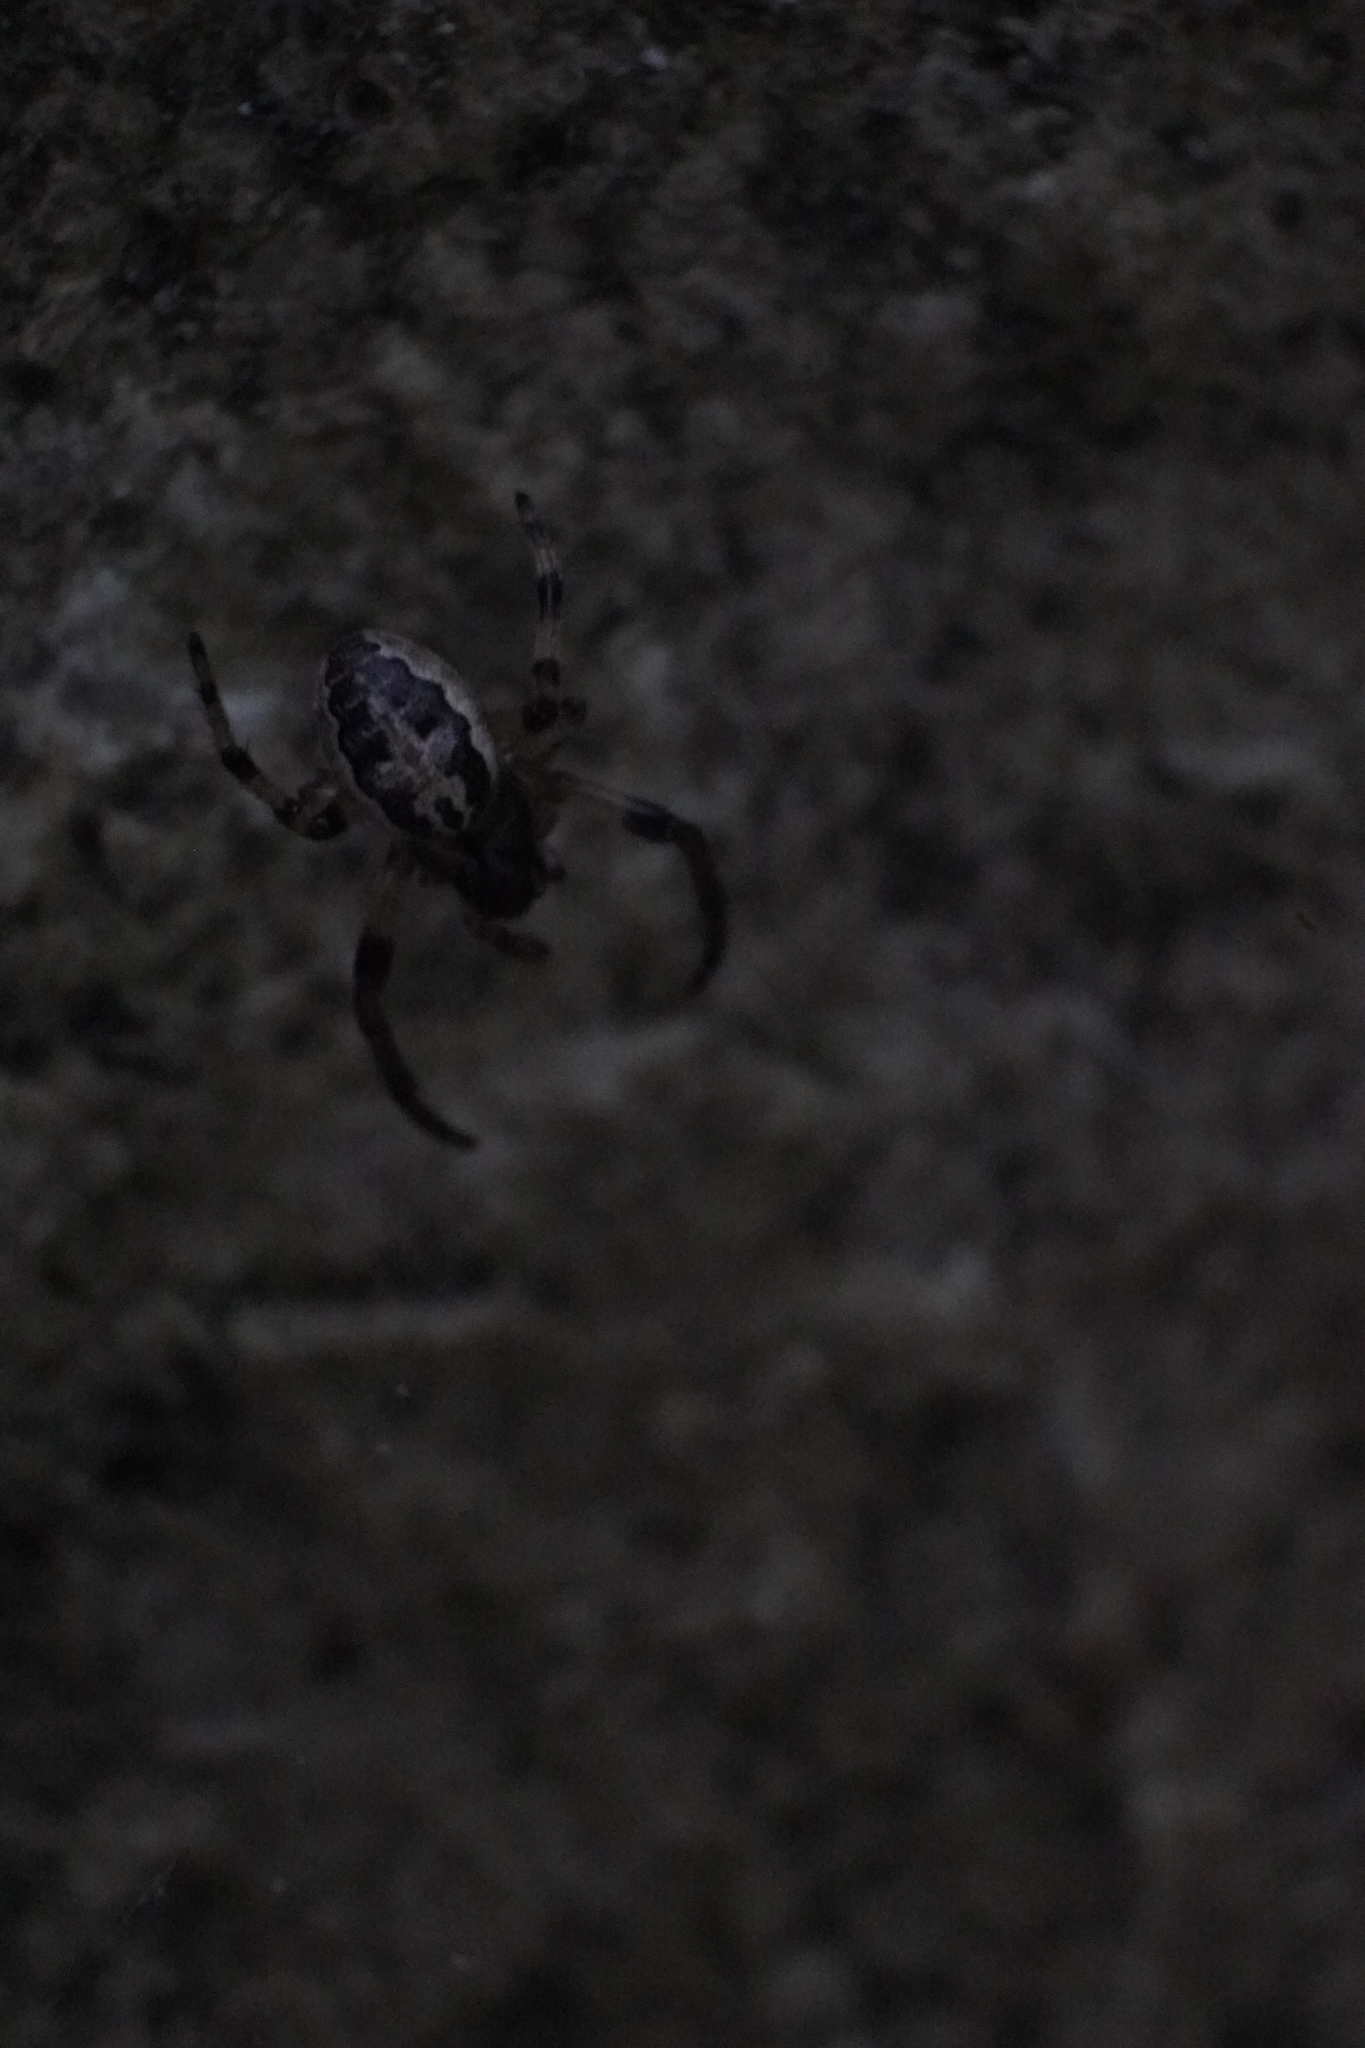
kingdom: Animalia
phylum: Arthropoda
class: Arachnida
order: Araneae
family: Araneidae
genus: Larinioides
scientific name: Larinioides cornutus
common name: Furrow orbweaver
